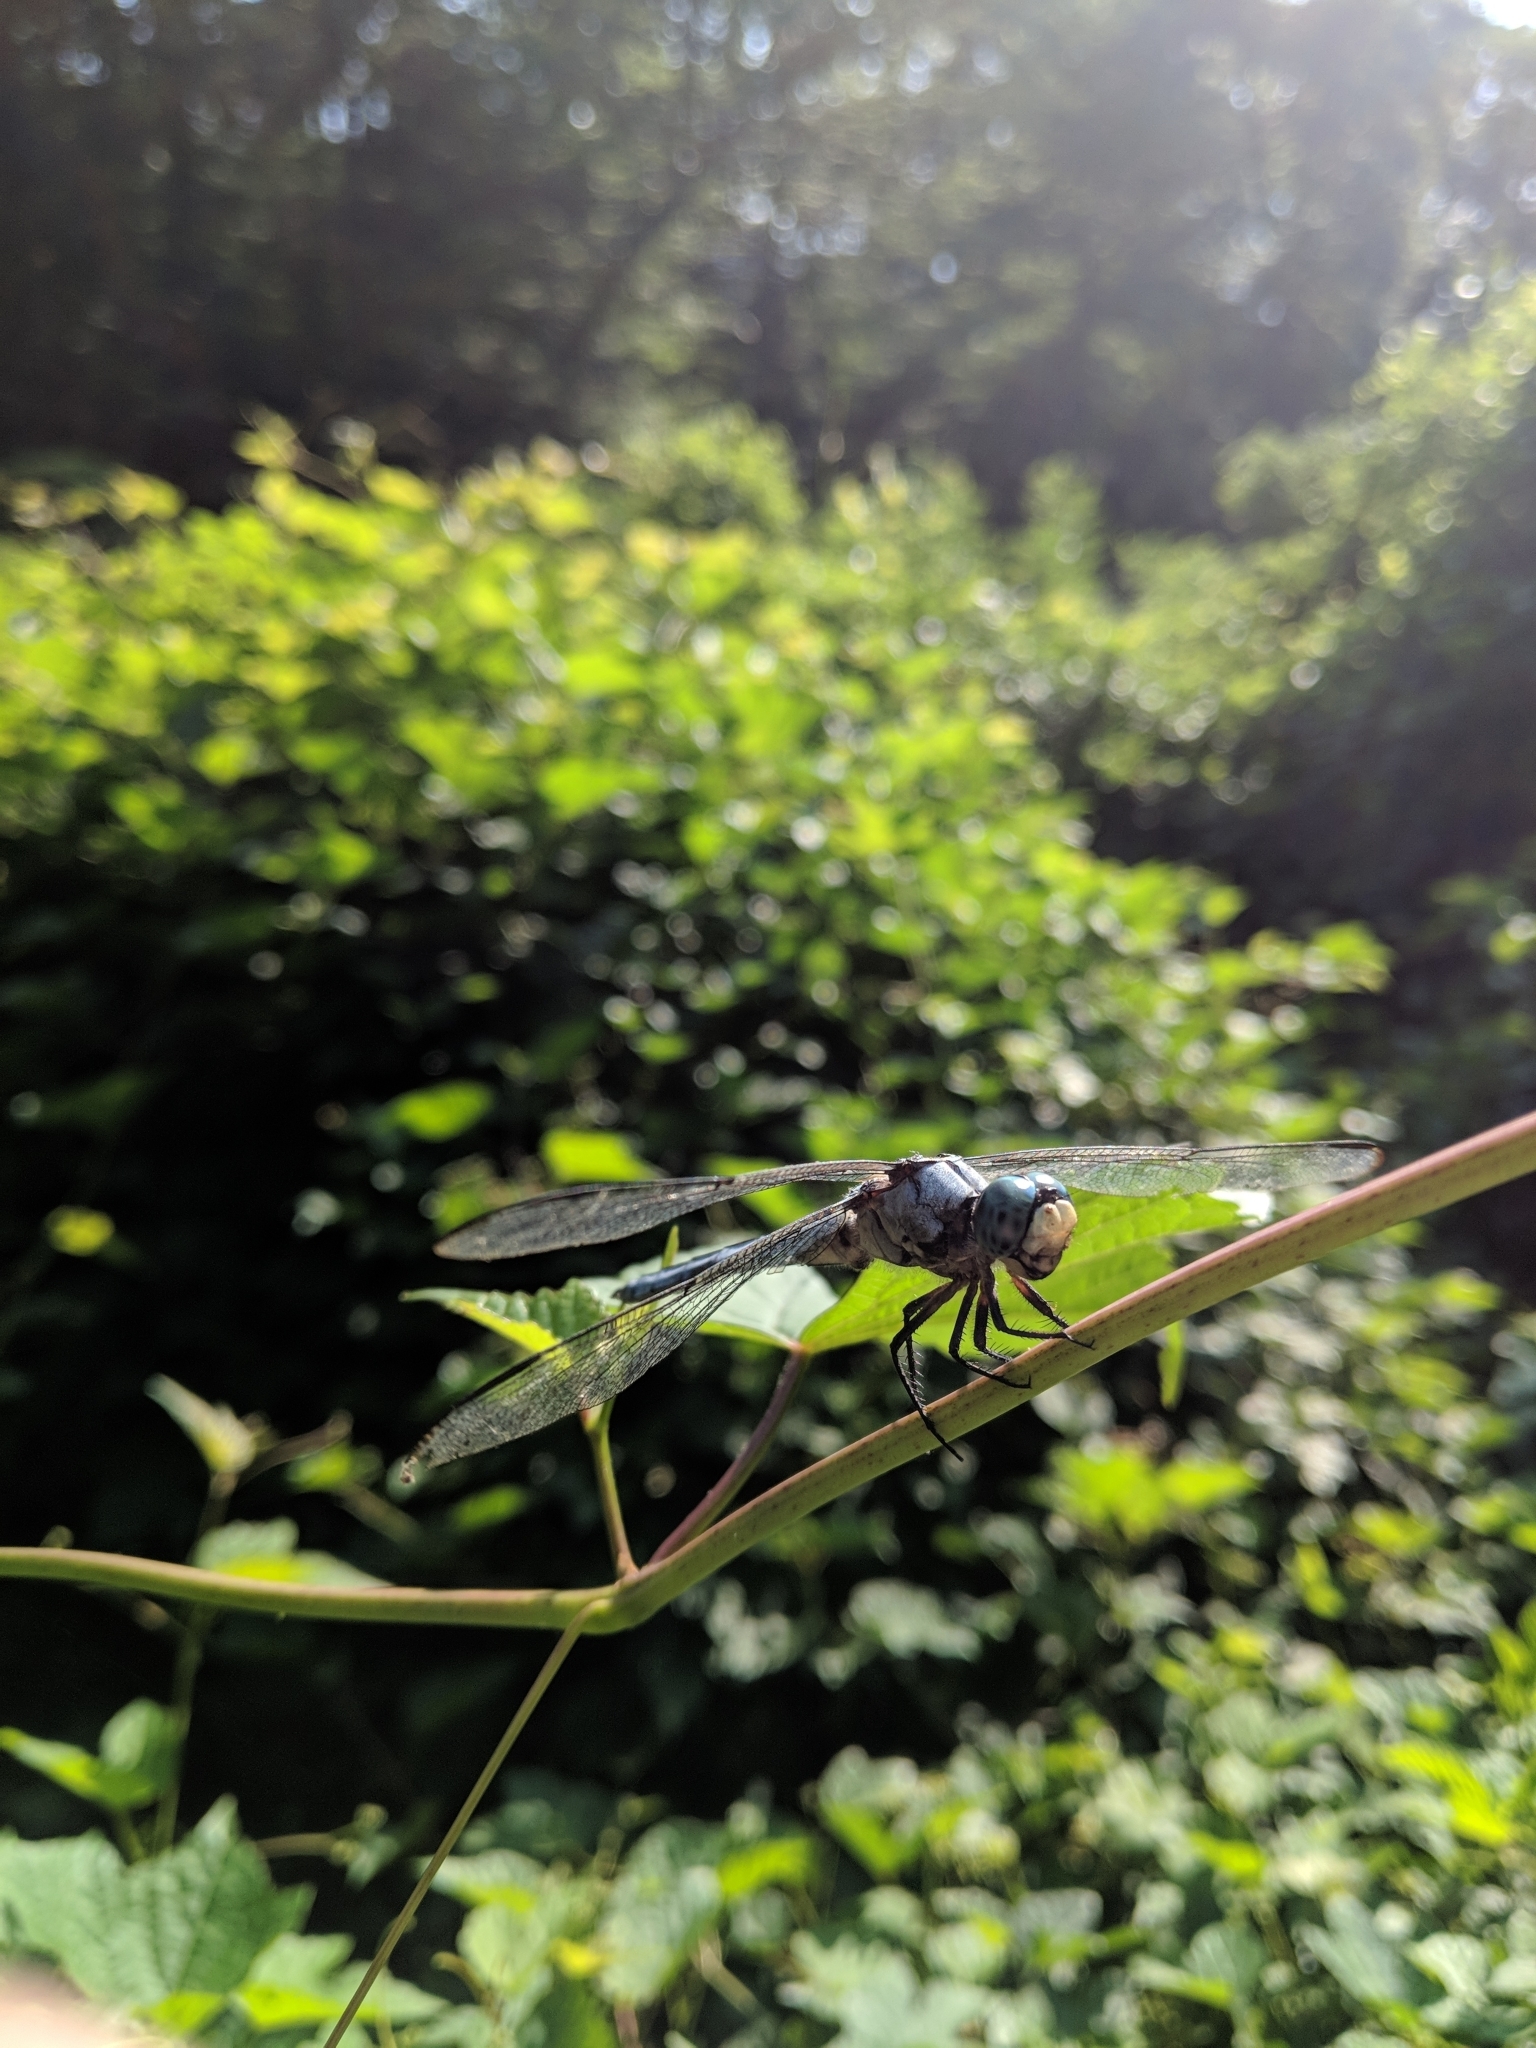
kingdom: Animalia
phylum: Arthropoda
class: Insecta
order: Odonata
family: Libellulidae
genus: Libellula
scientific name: Libellula vibrans
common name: Great blue skimmer
